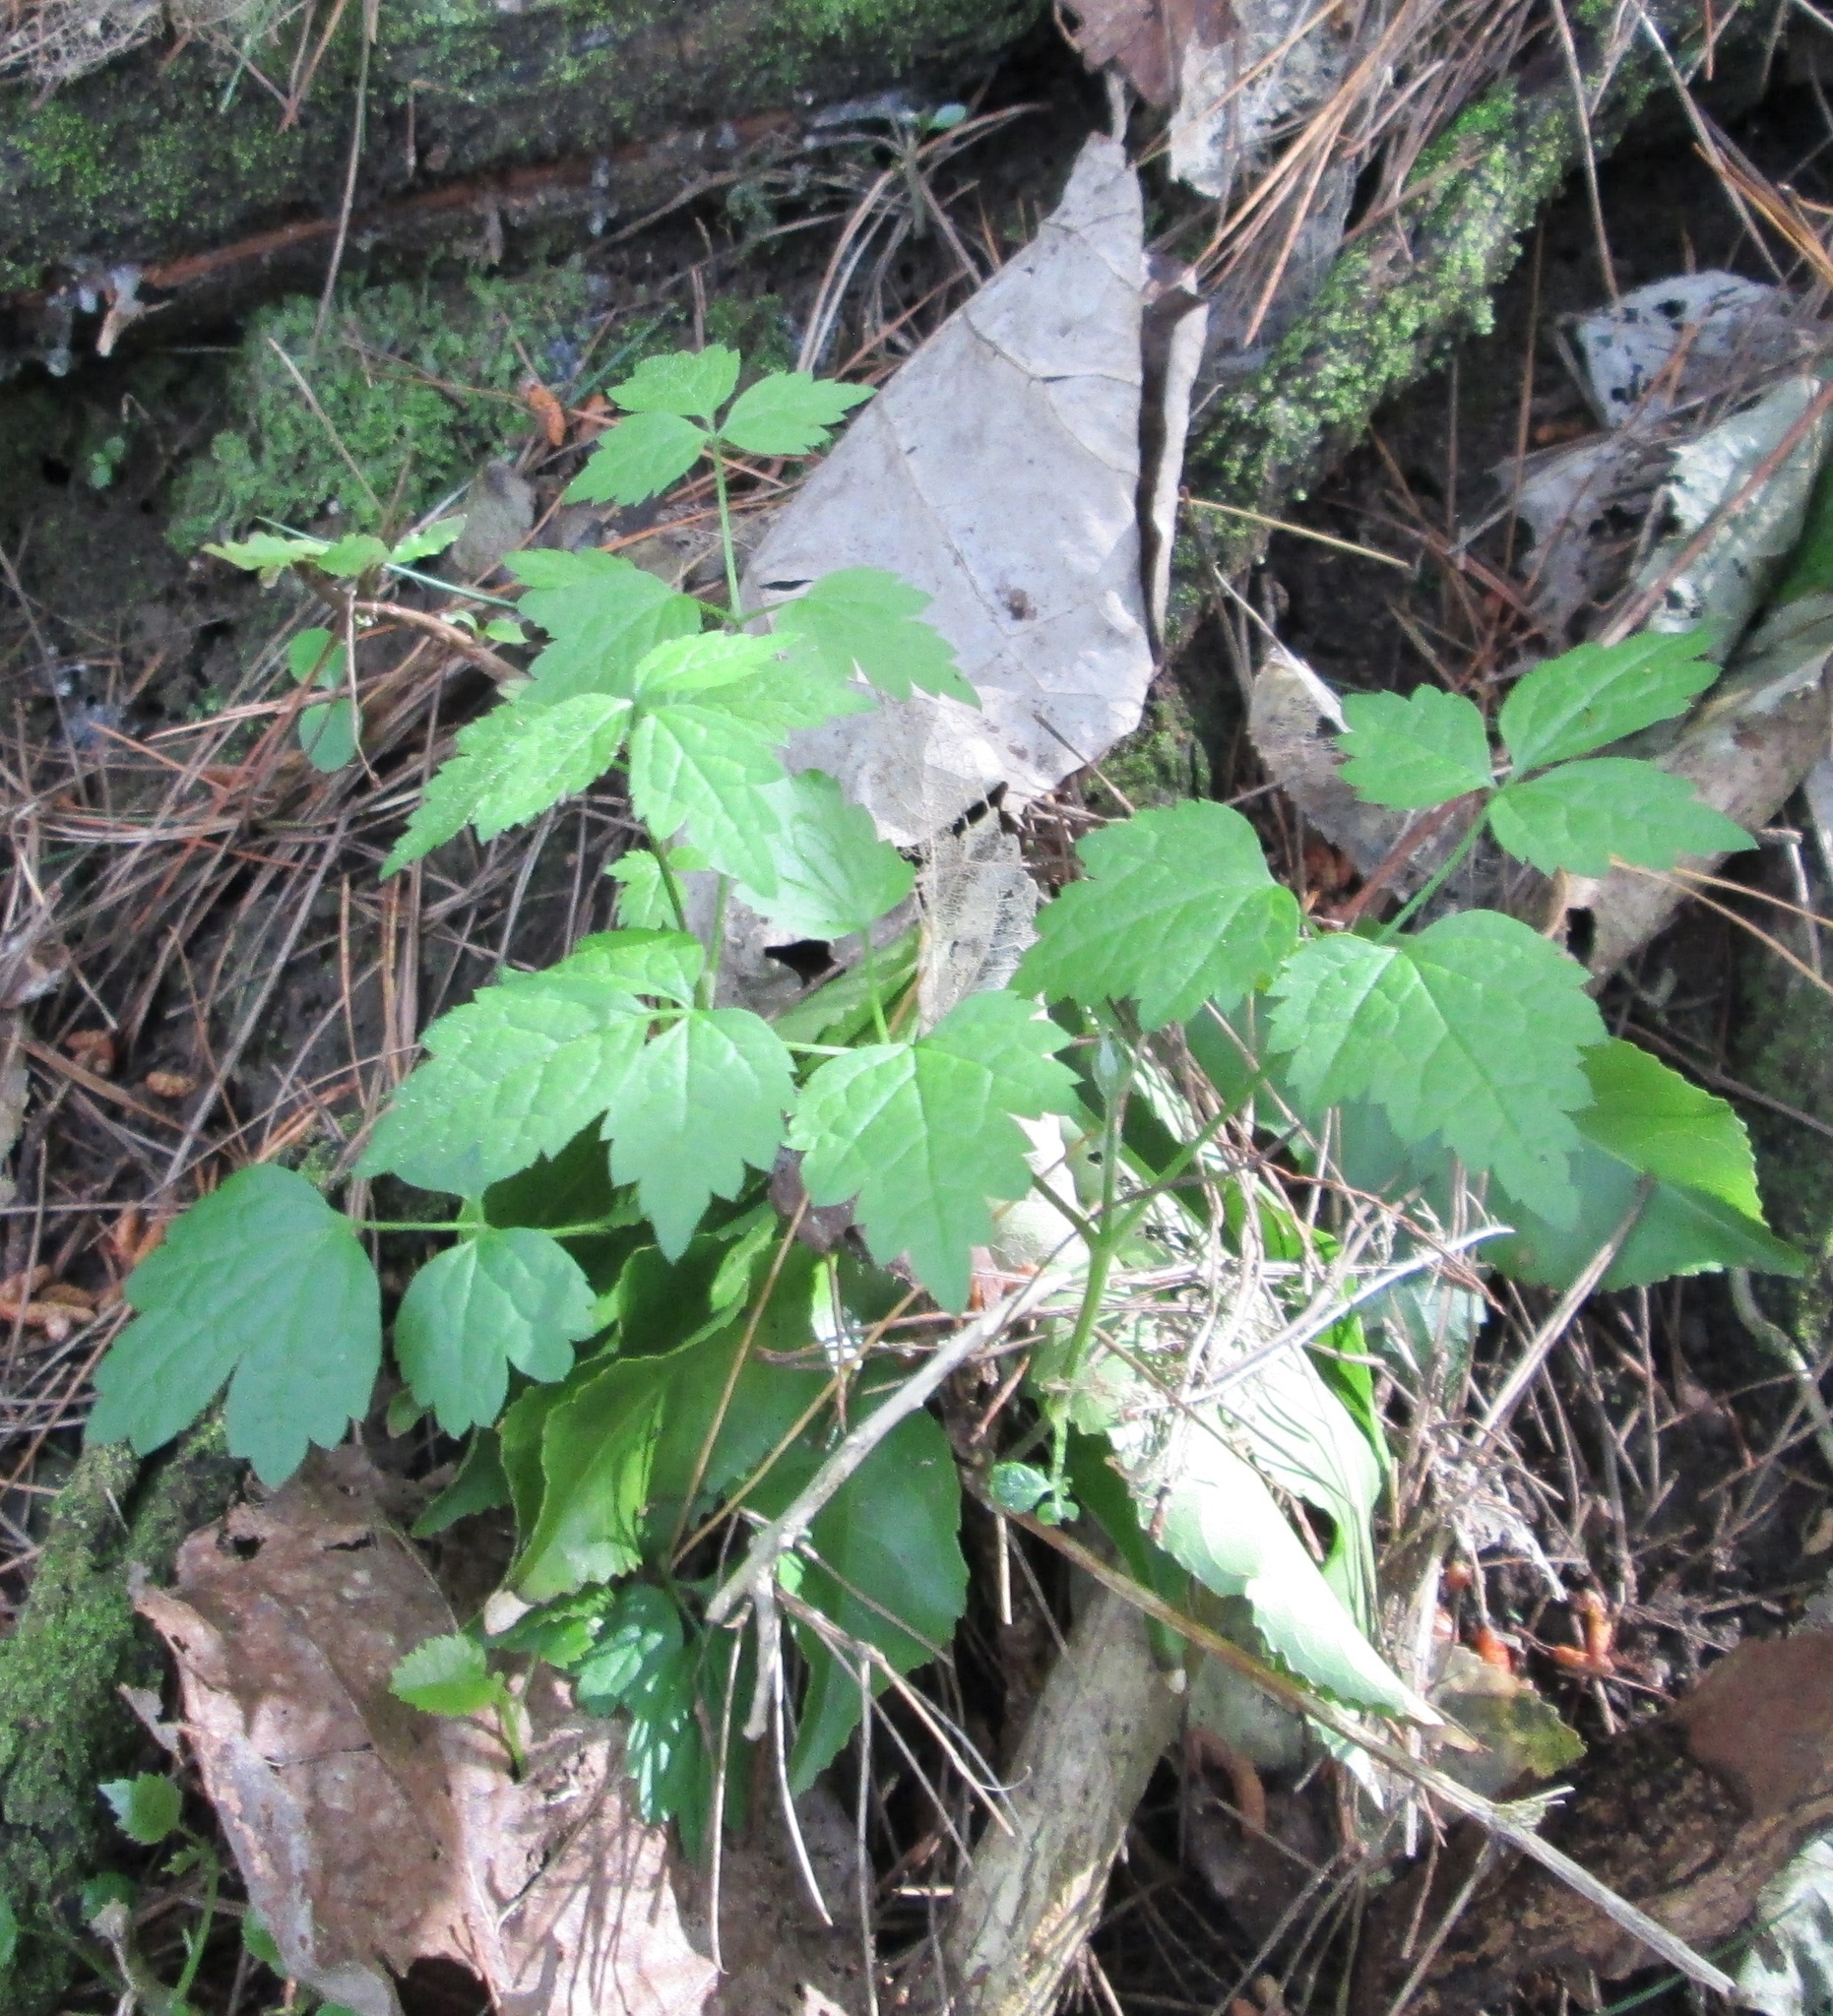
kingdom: Plantae
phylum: Tracheophyta
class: Magnoliopsida
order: Ranunculales
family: Ranunculaceae
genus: Clematis
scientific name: Clematis vitalba
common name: Evergreen clematis
